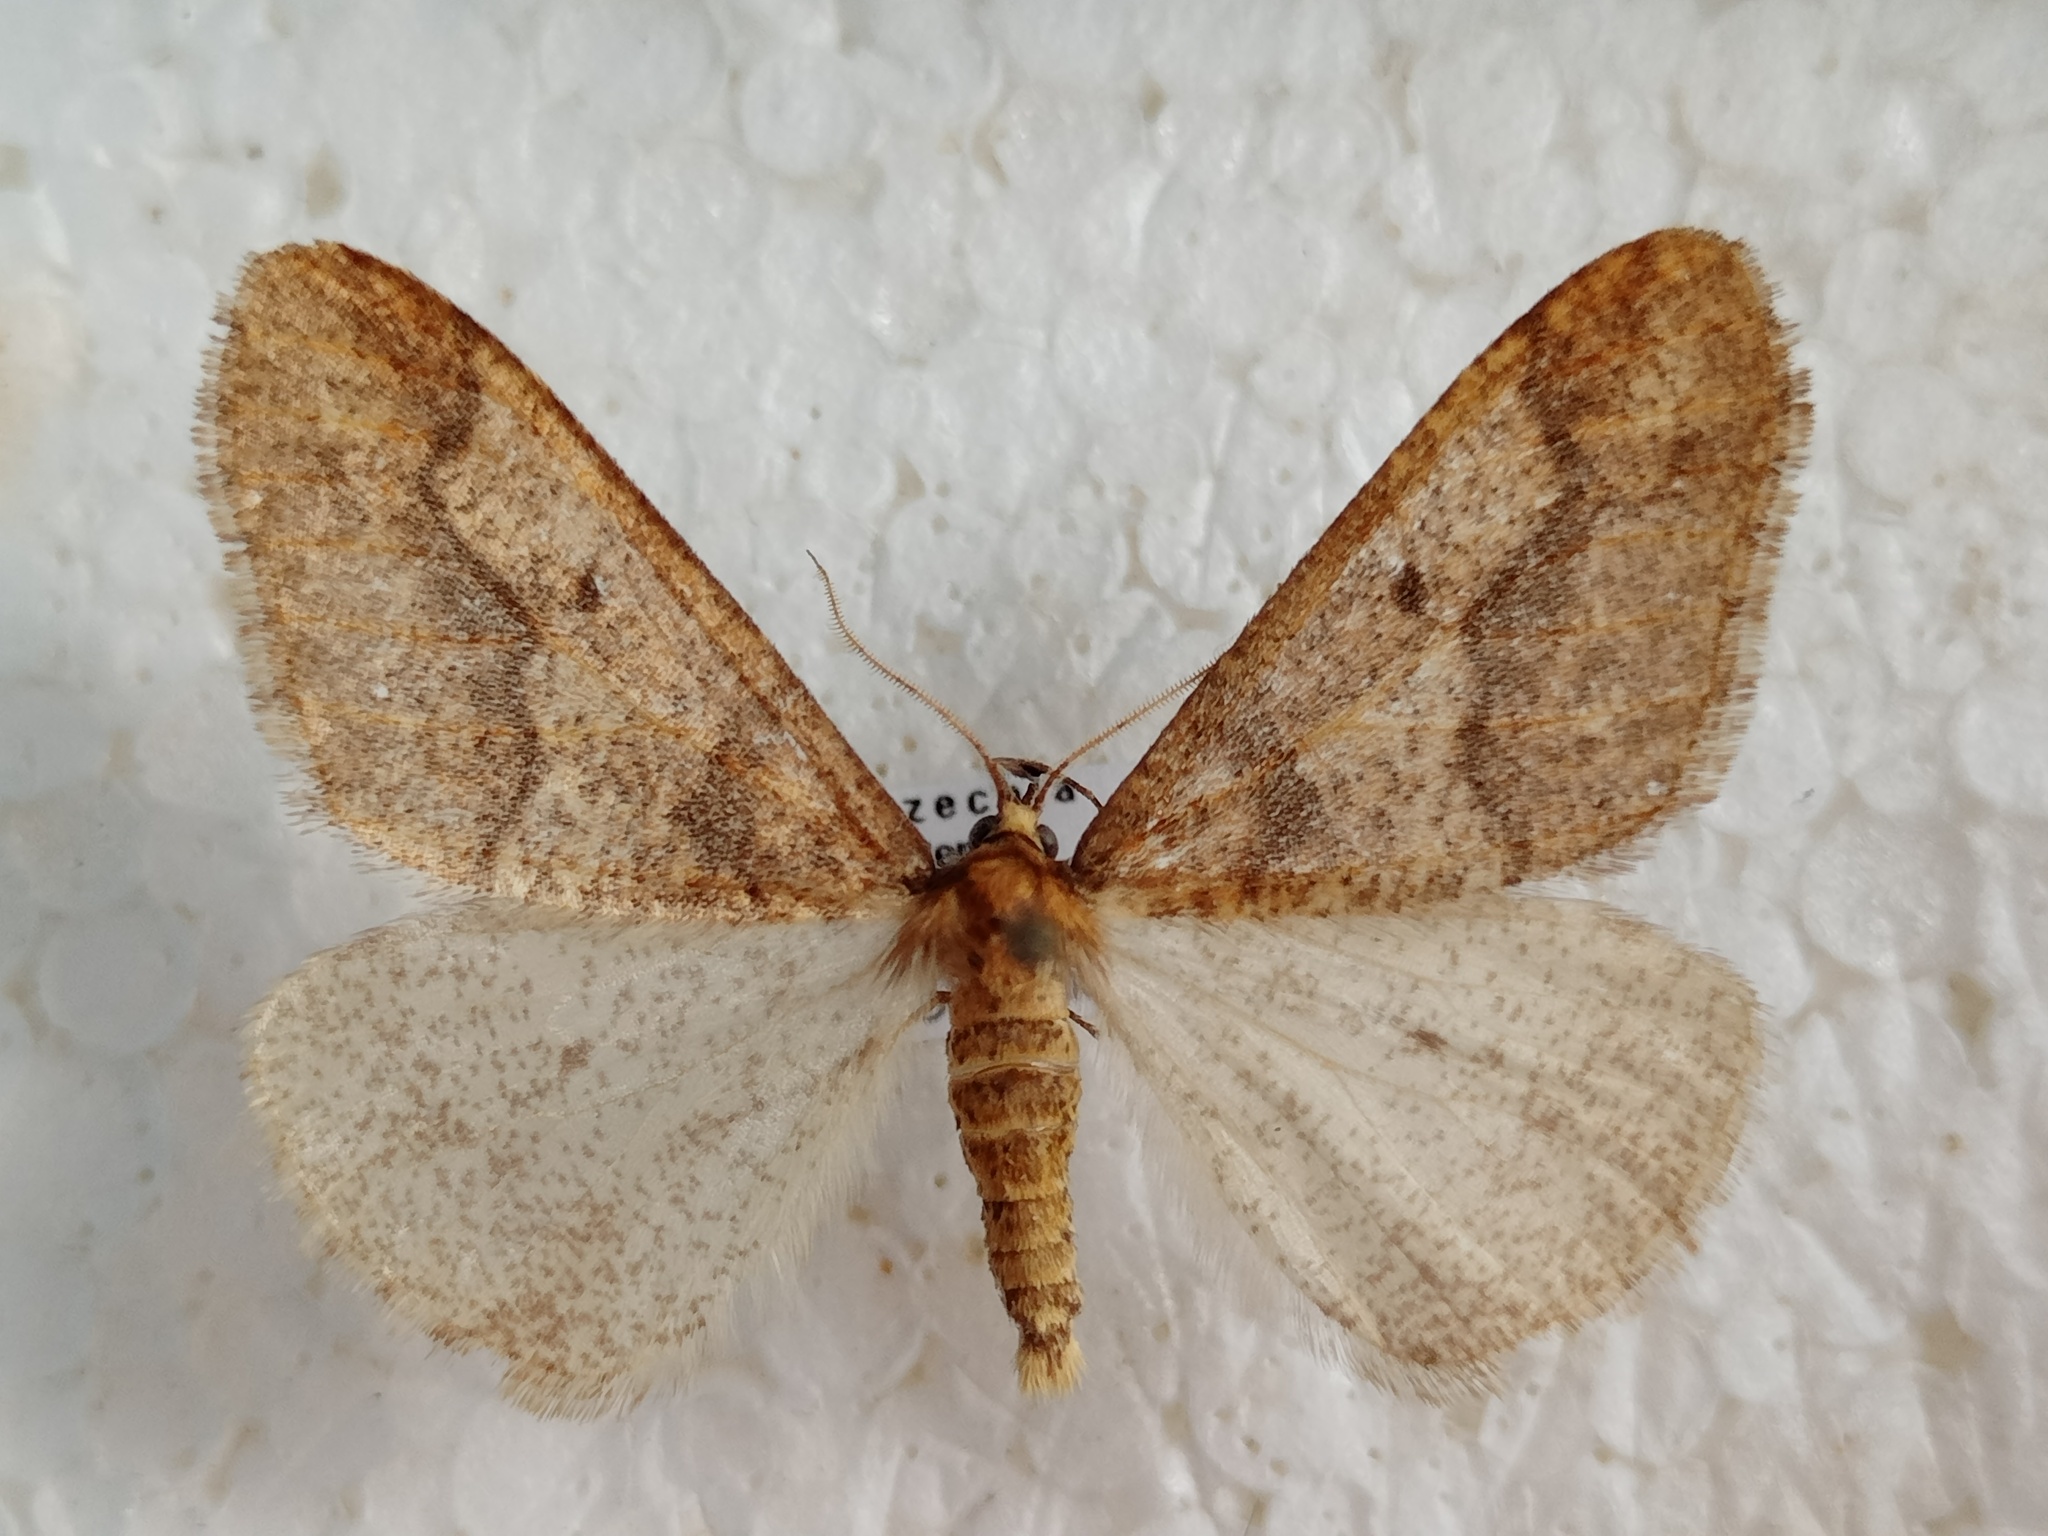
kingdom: Animalia
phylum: Arthropoda
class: Insecta
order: Lepidoptera
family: Geometridae
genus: Erannis
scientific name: Erannis defoliaria
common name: Mottled umber
